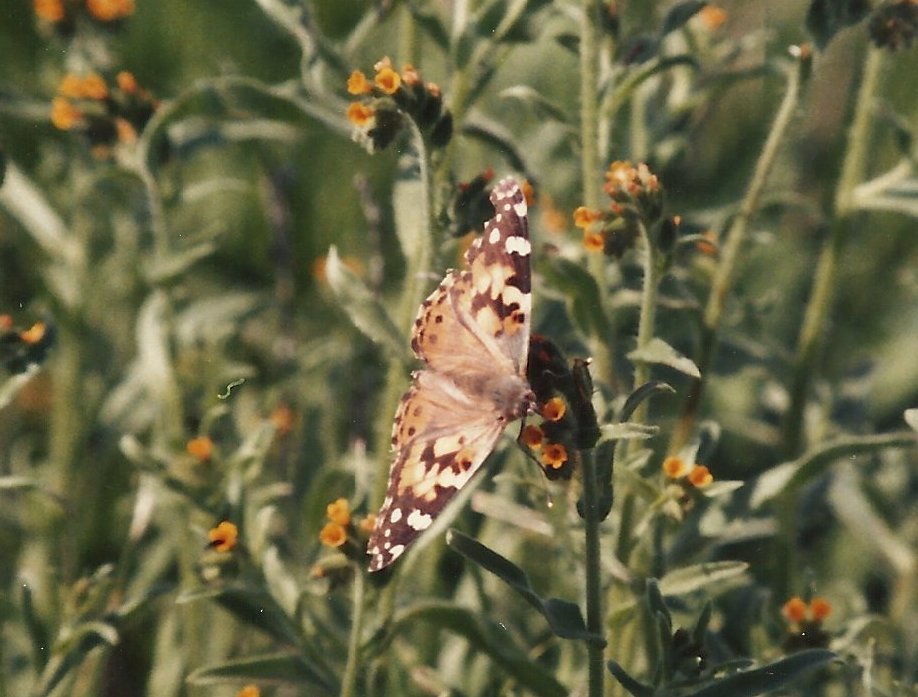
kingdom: Animalia
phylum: Arthropoda
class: Insecta
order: Lepidoptera
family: Nymphalidae
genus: Vanessa
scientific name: Vanessa cardui
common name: Painted lady
